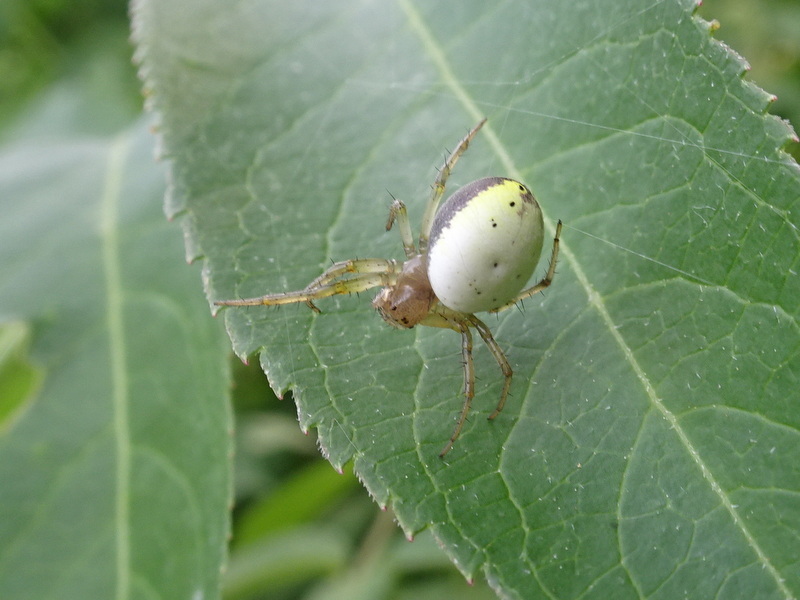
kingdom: Animalia
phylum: Arthropoda
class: Arachnida
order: Araneae
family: Araneidae
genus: Araniella
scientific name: Araniella displicata
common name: Sixspotted orb weaver
